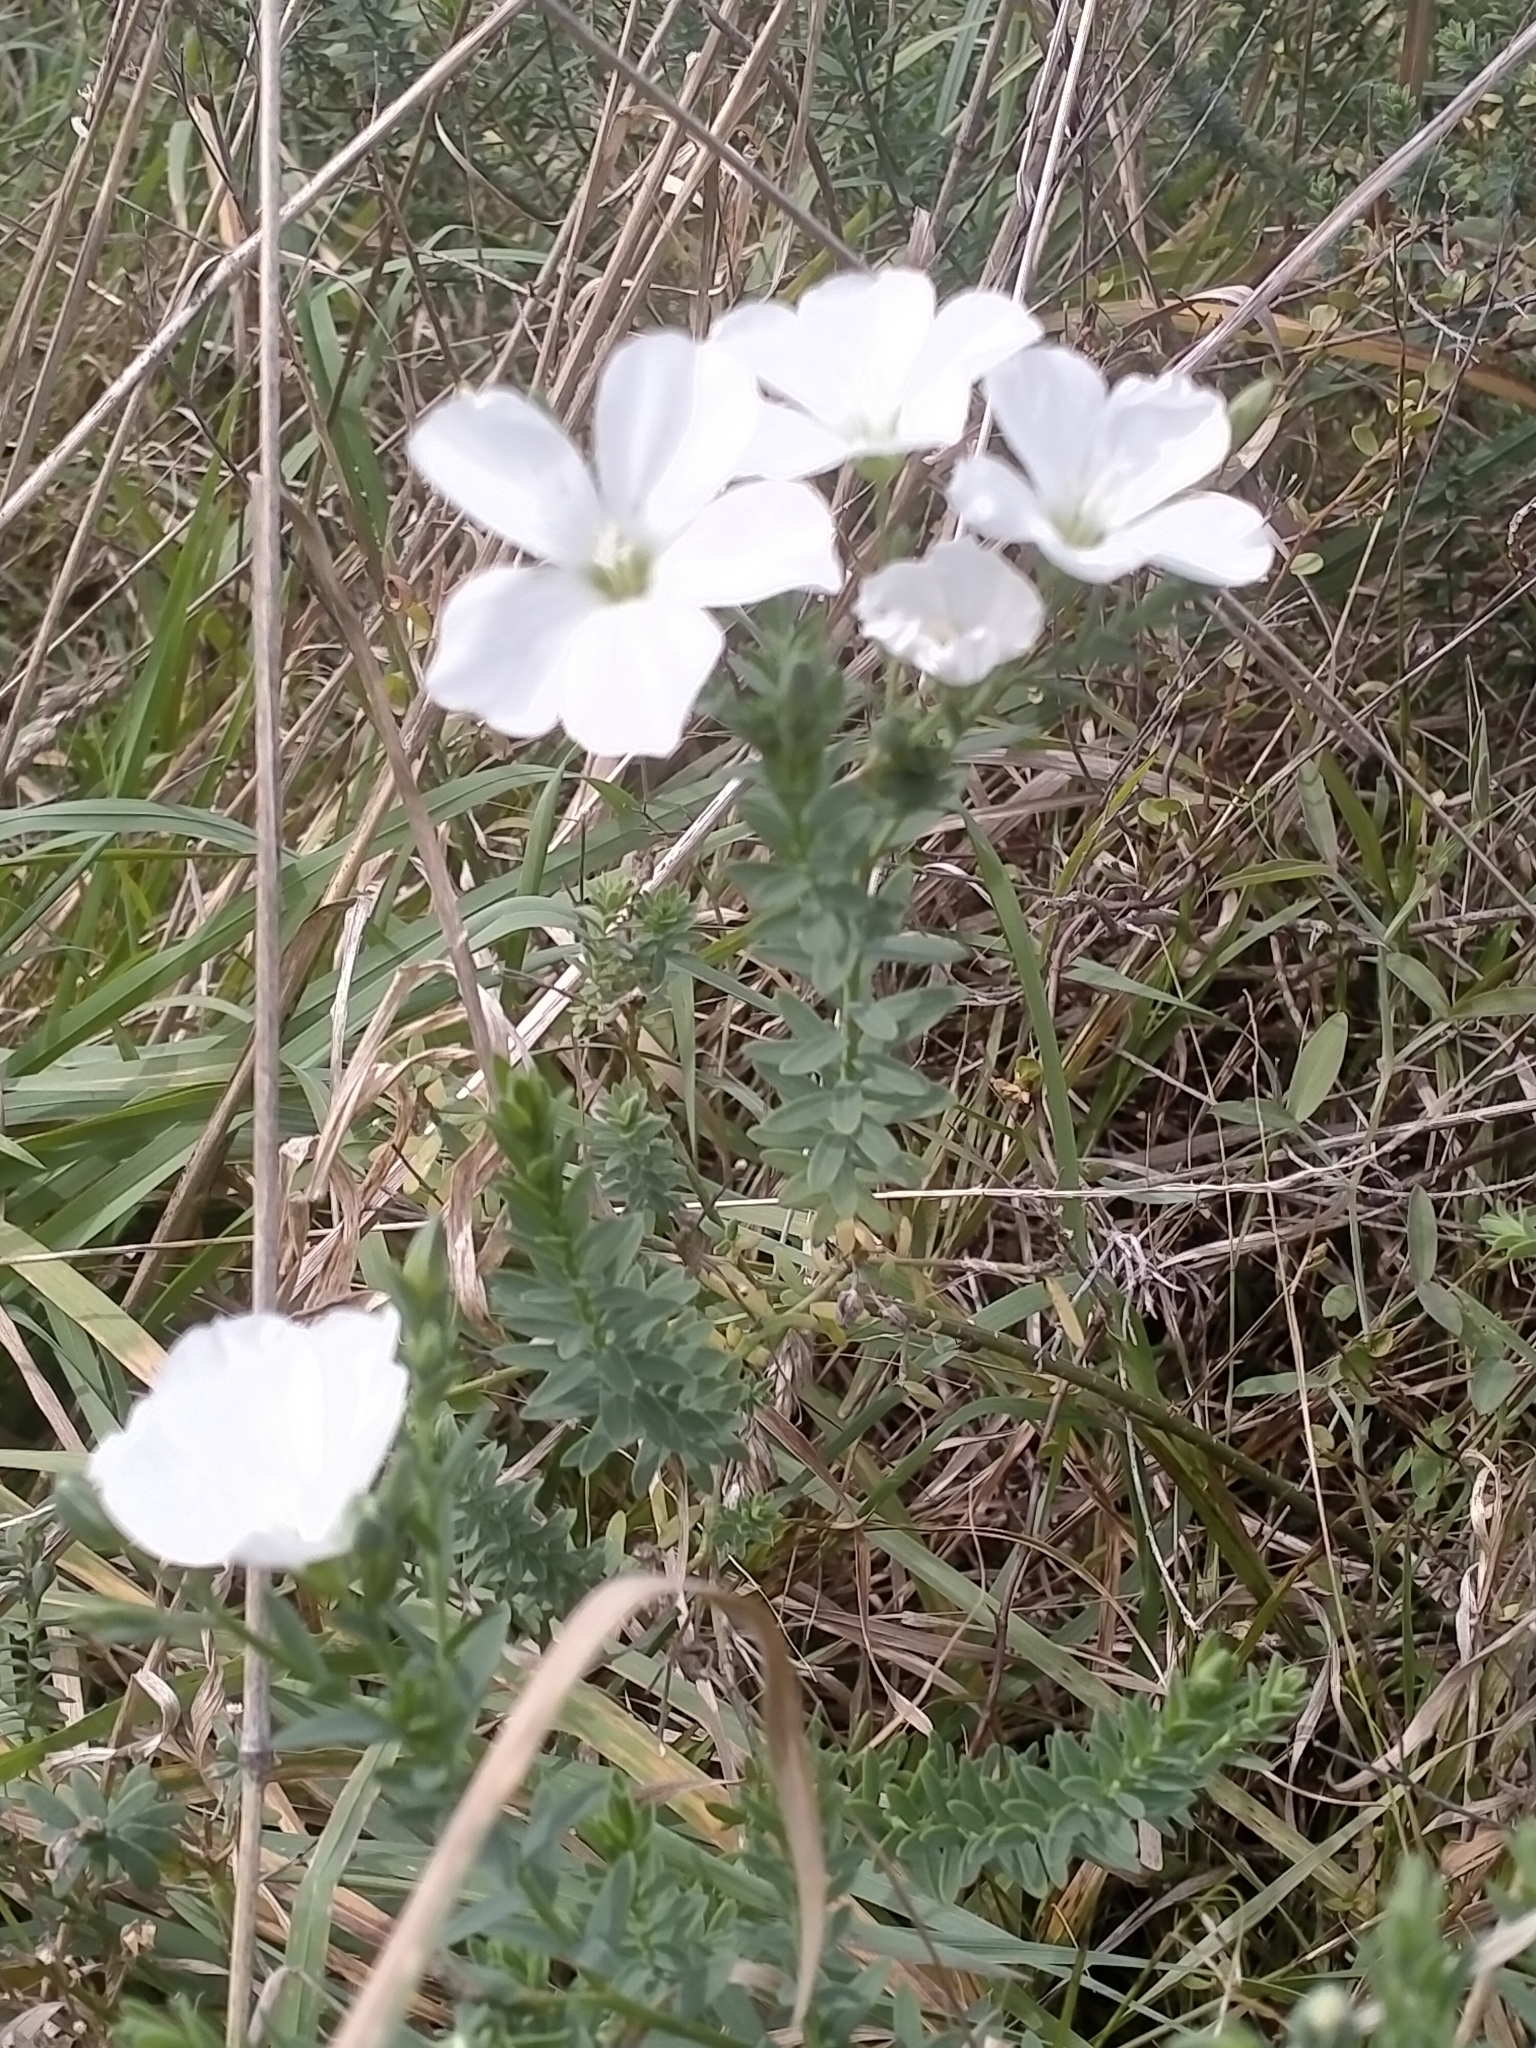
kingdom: Plantae
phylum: Tracheophyta
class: Magnoliopsida
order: Malpighiales
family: Linaceae
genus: Linum
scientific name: Linum monogynum
